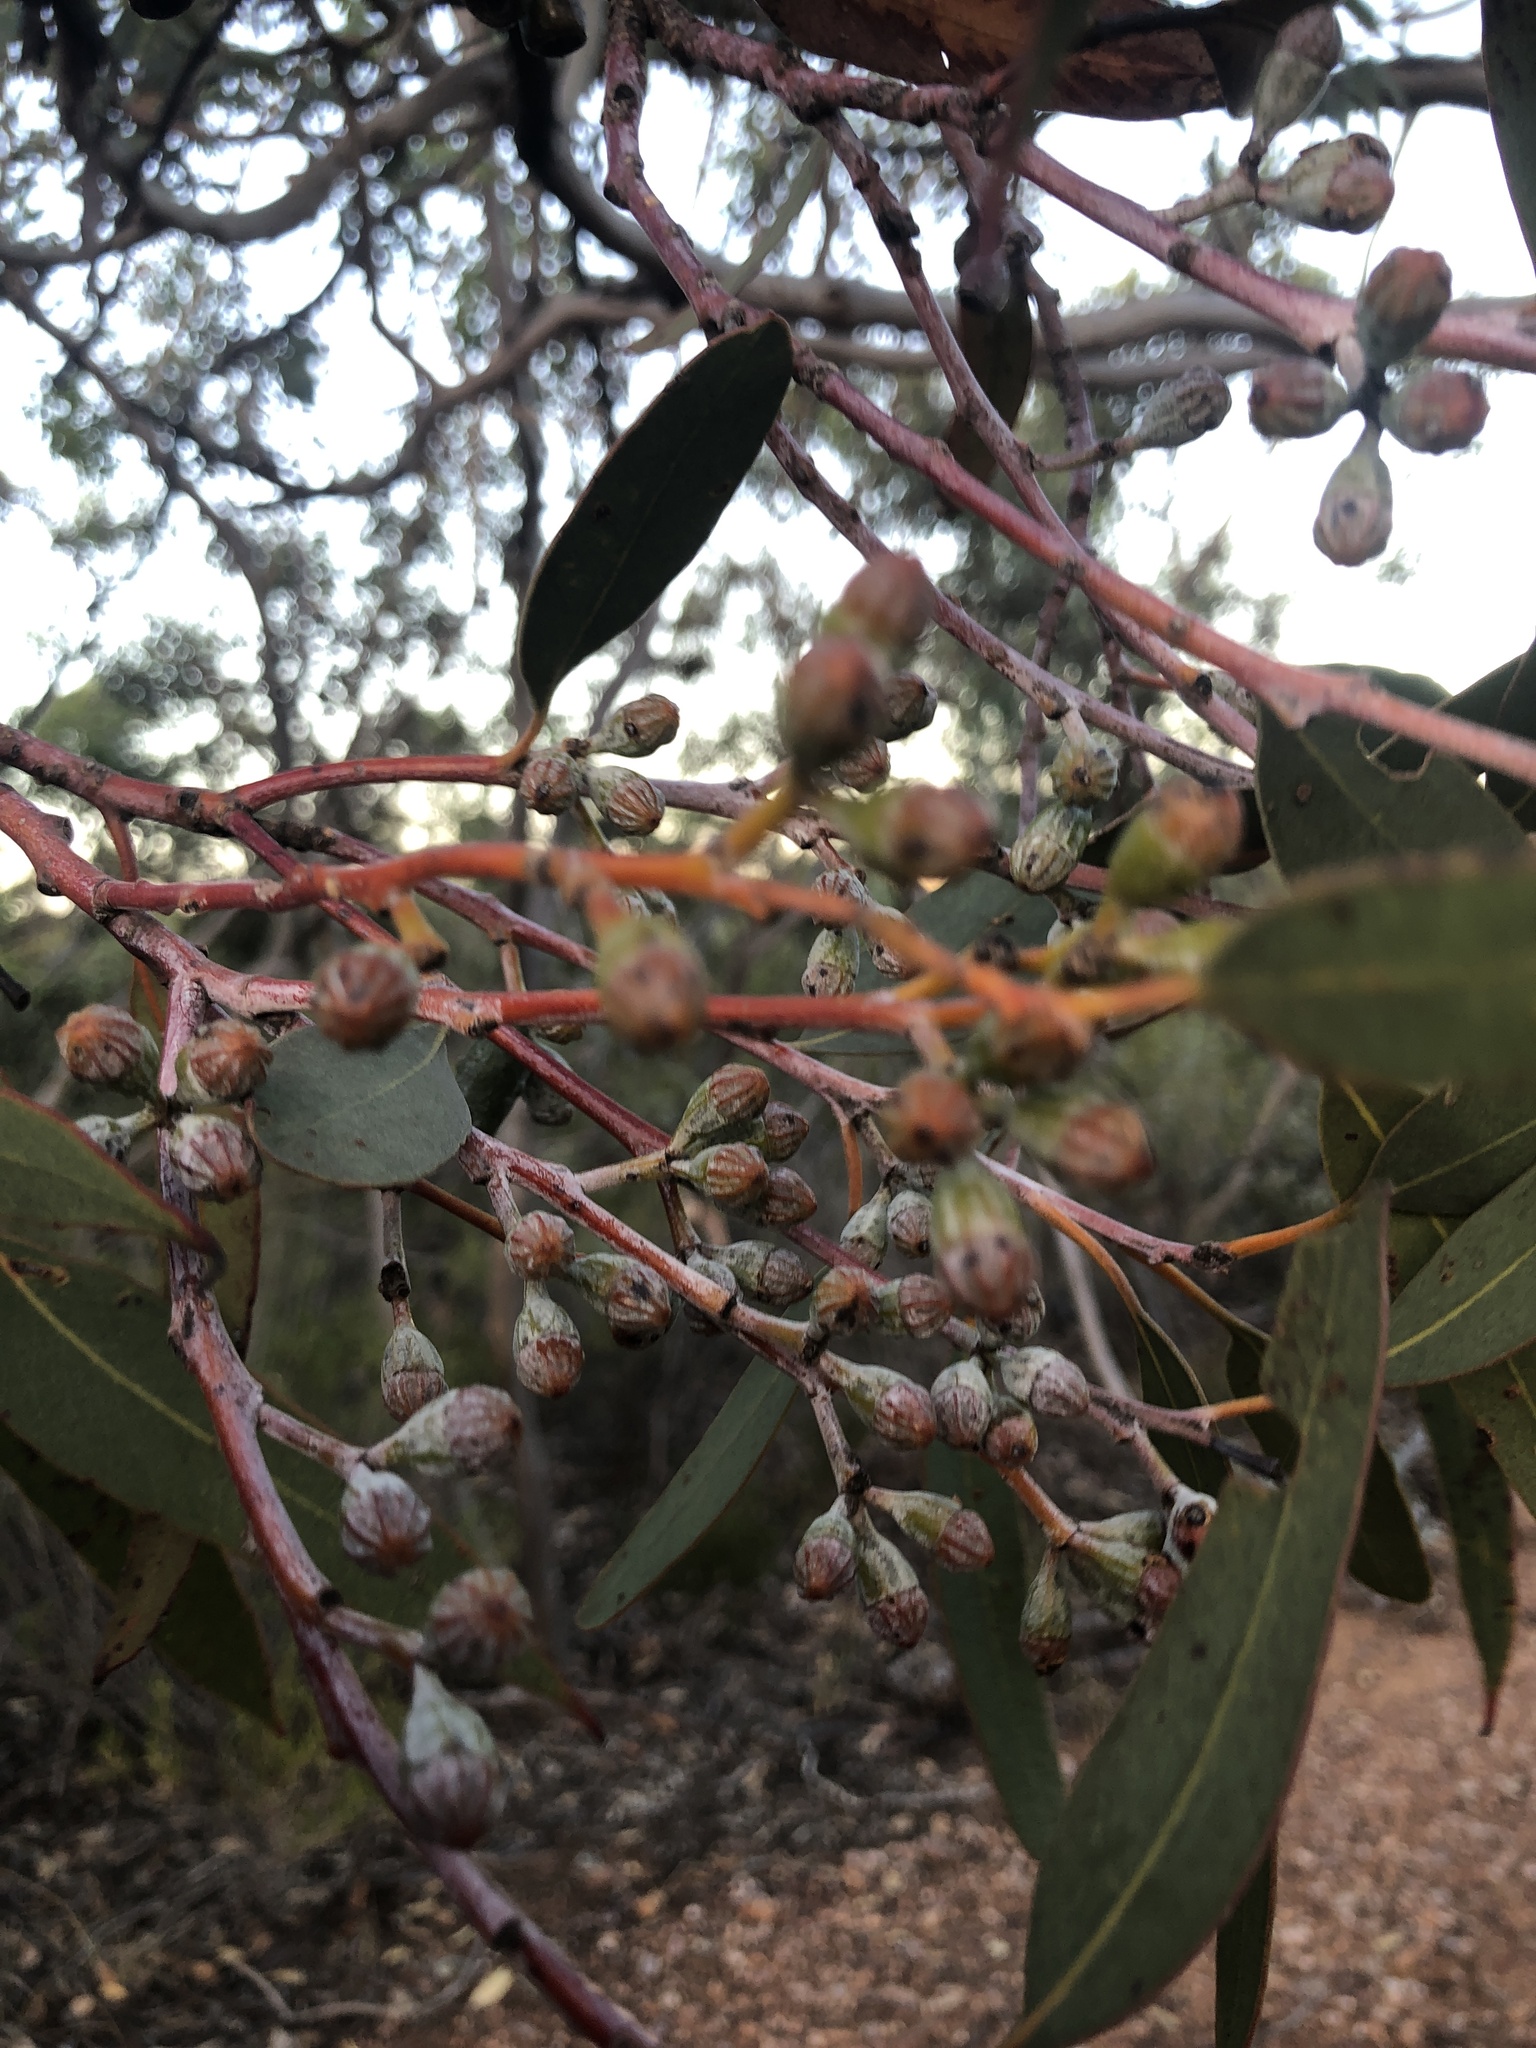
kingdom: Plantae
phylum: Tracheophyta
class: Magnoliopsida
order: Myrtales
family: Myrtaceae
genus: Eucalyptus
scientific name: Eucalyptus cretata
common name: Darke peak mallee
